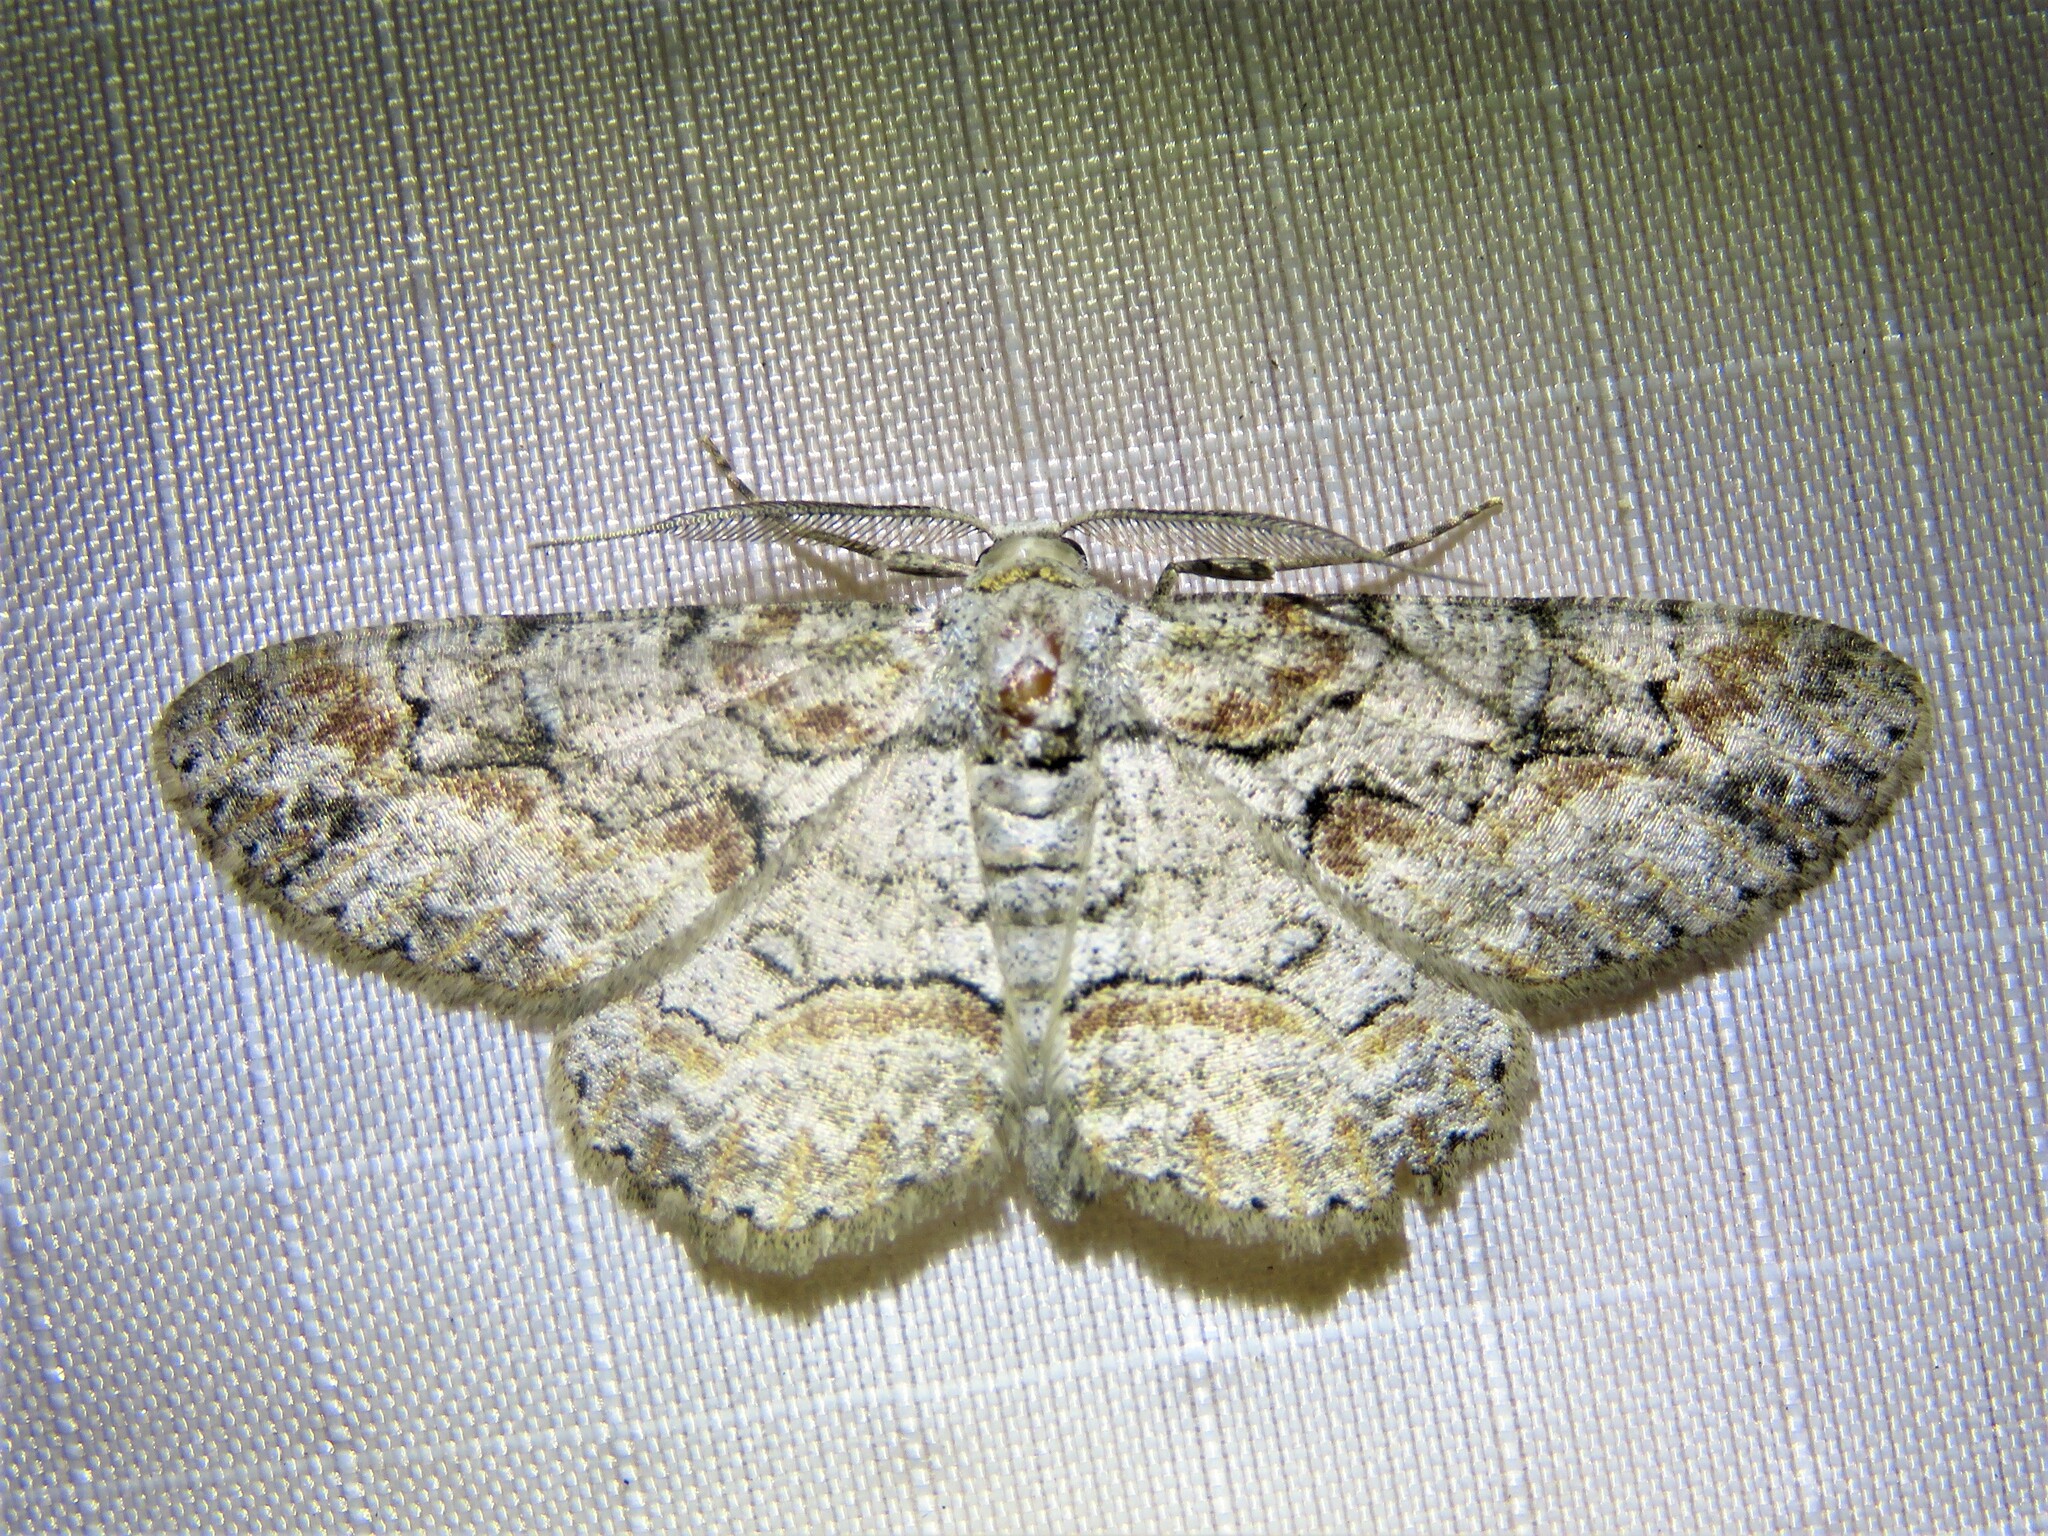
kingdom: Animalia
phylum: Arthropoda
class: Insecta
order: Lepidoptera
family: Geometridae
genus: Iridopsis
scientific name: Iridopsis defectaria
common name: Brown-shaded gray
